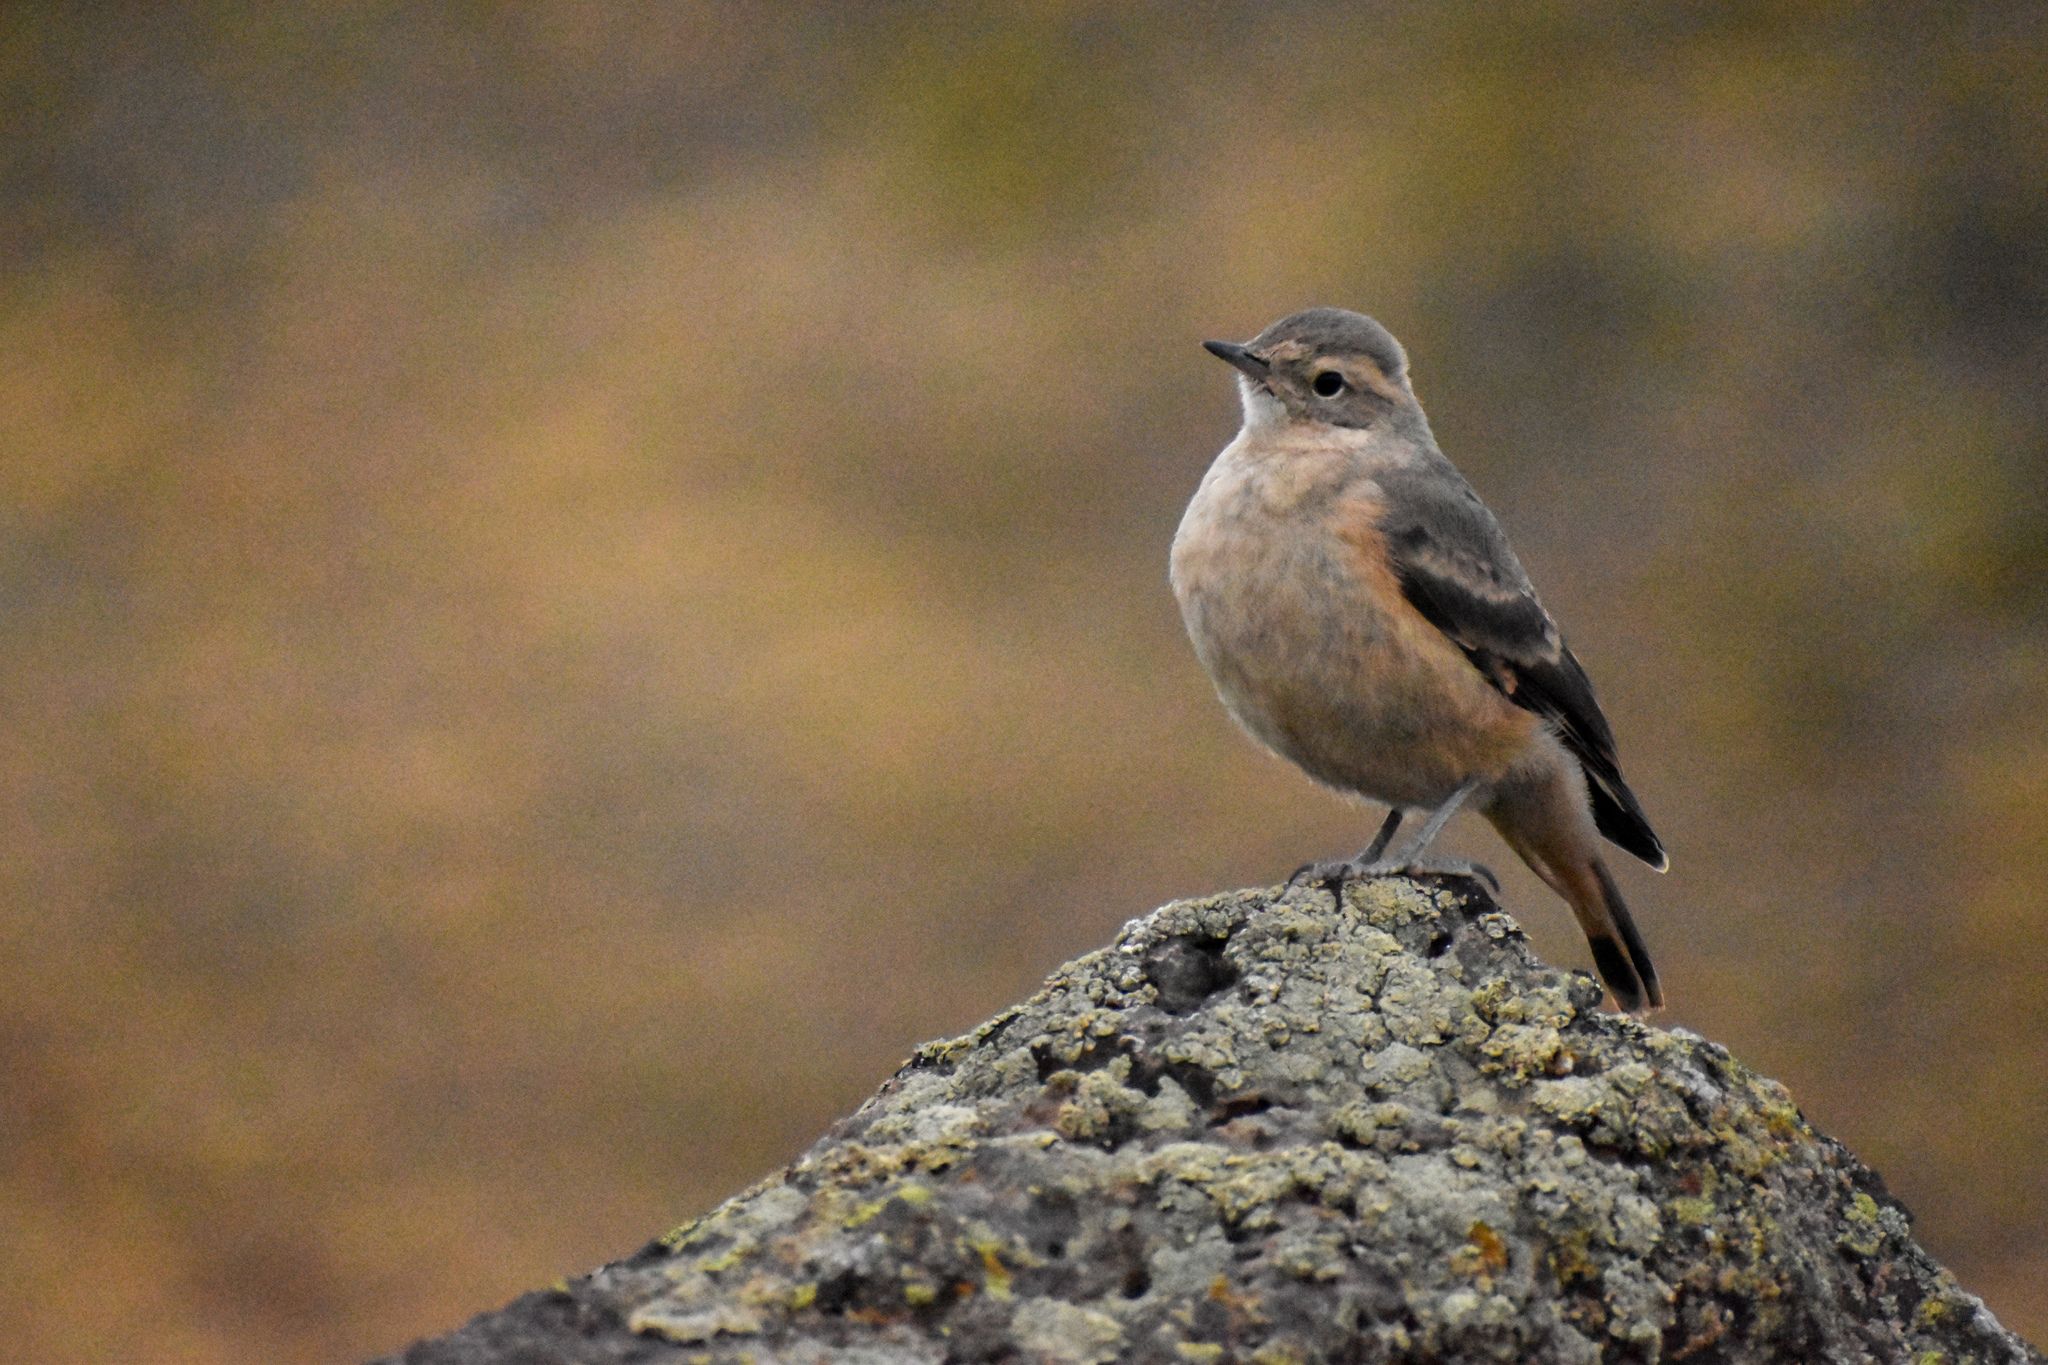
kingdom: Animalia
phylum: Chordata
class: Aves
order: Passeriformes
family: Furnariidae
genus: Geositta
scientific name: Geositta rufipennis
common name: Rufous-banded miner
